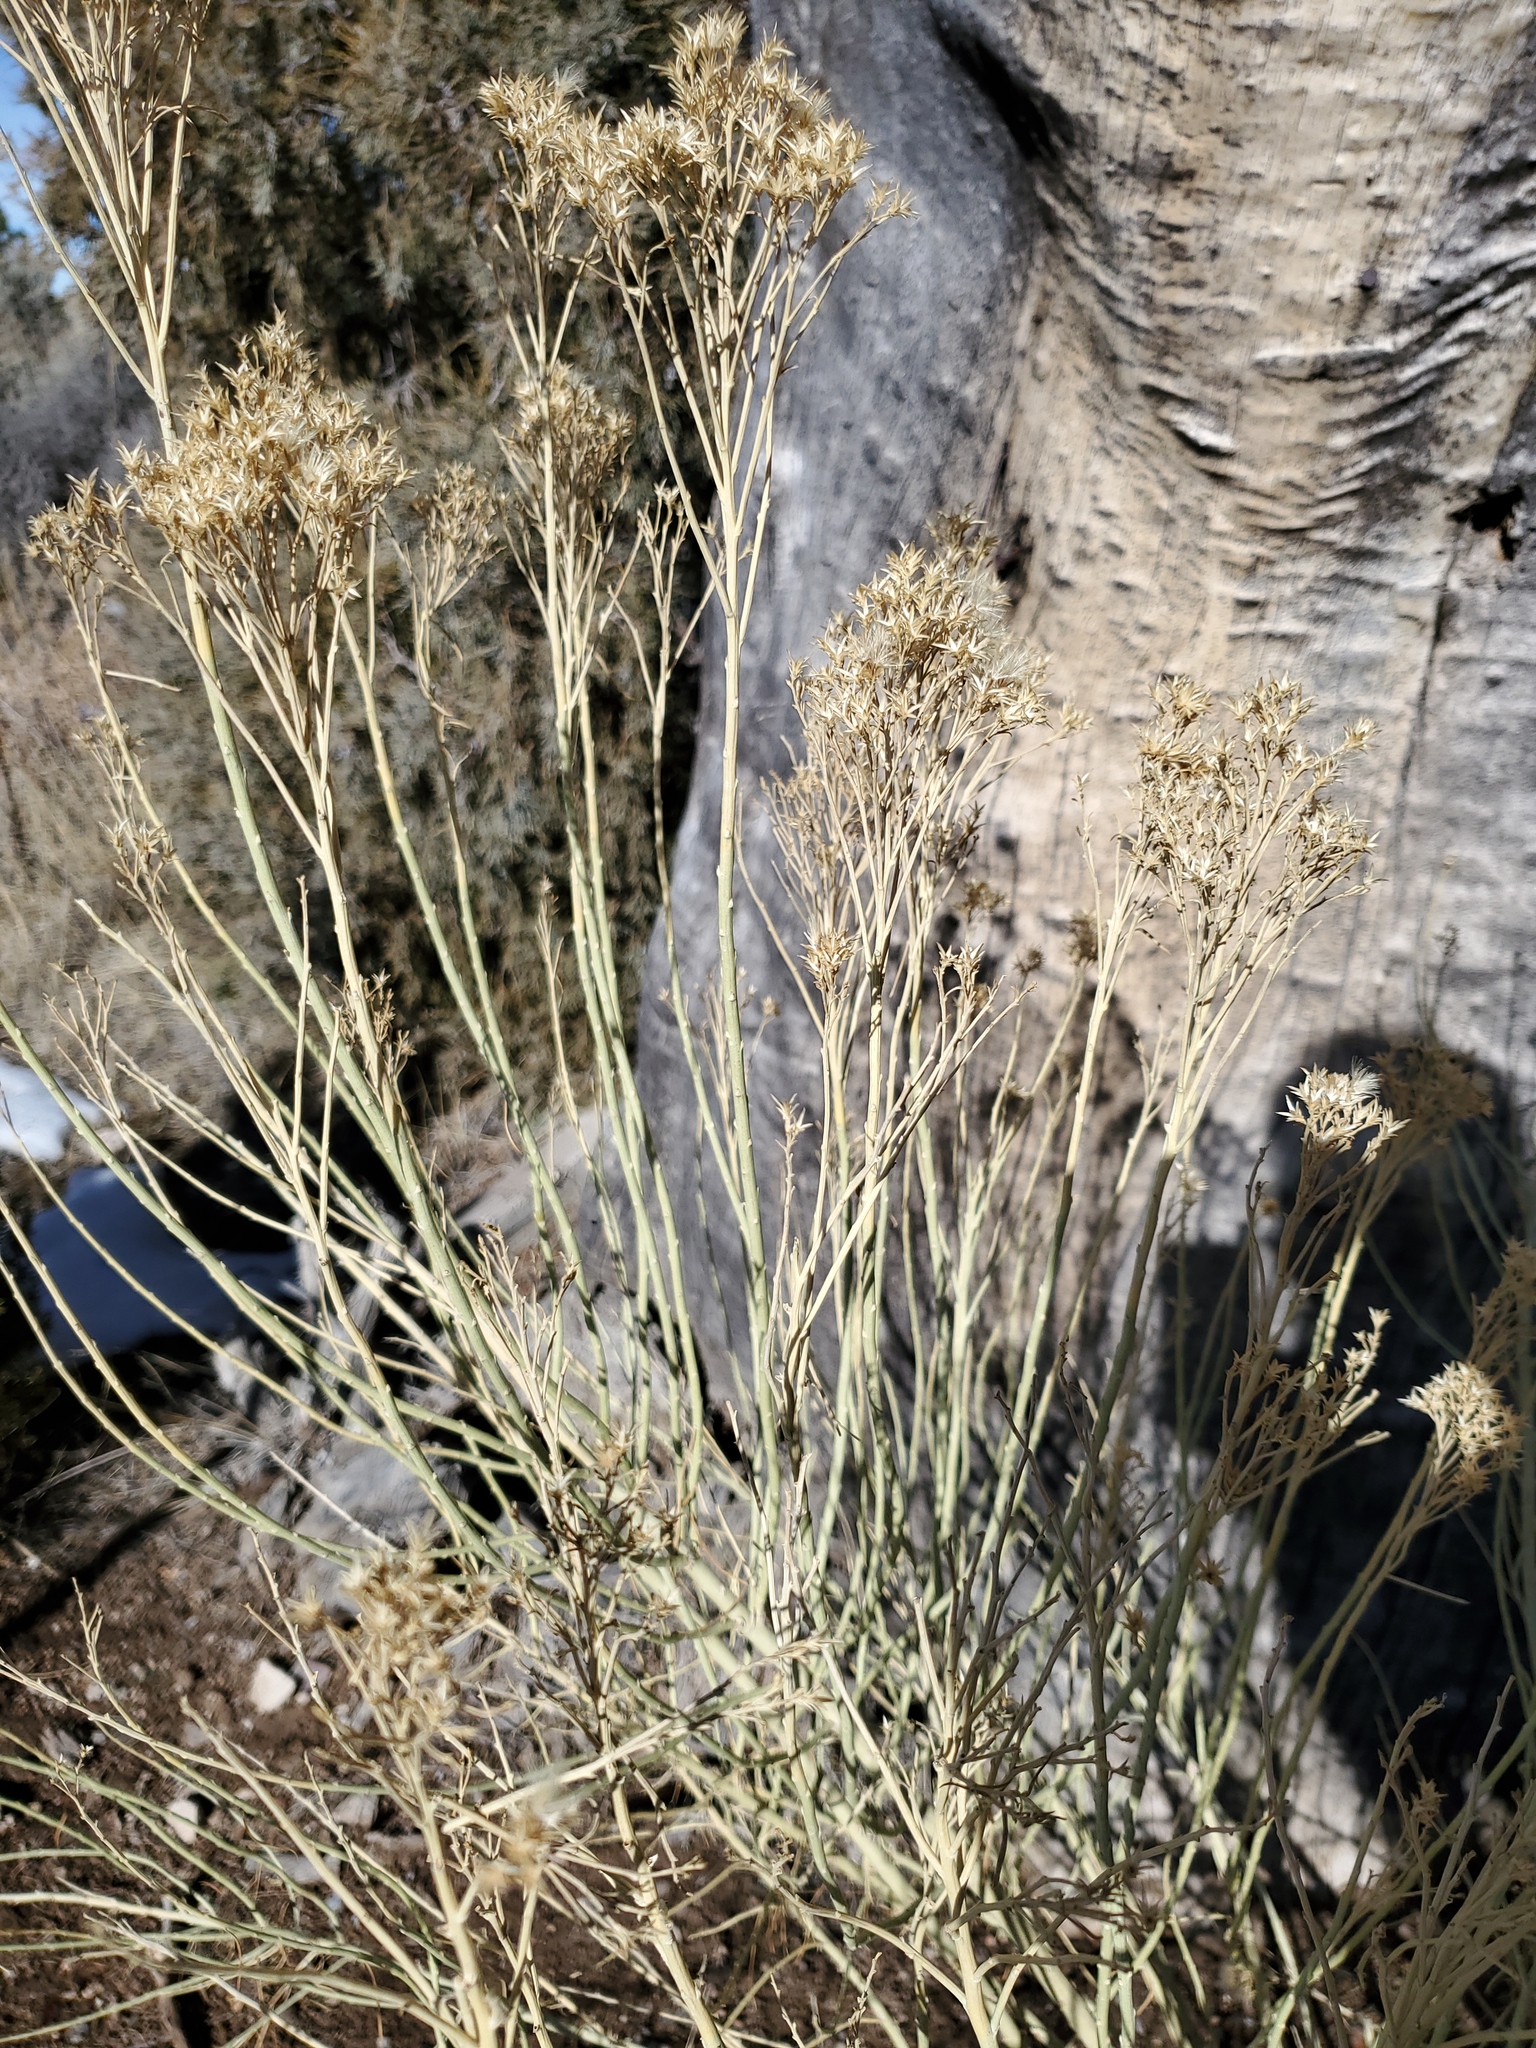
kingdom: Plantae
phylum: Tracheophyta
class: Magnoliopsida
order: Asterales
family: Asteraceae
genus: Ericameria
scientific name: Ericameria nauseosa
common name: Rubber rabbitbrush
